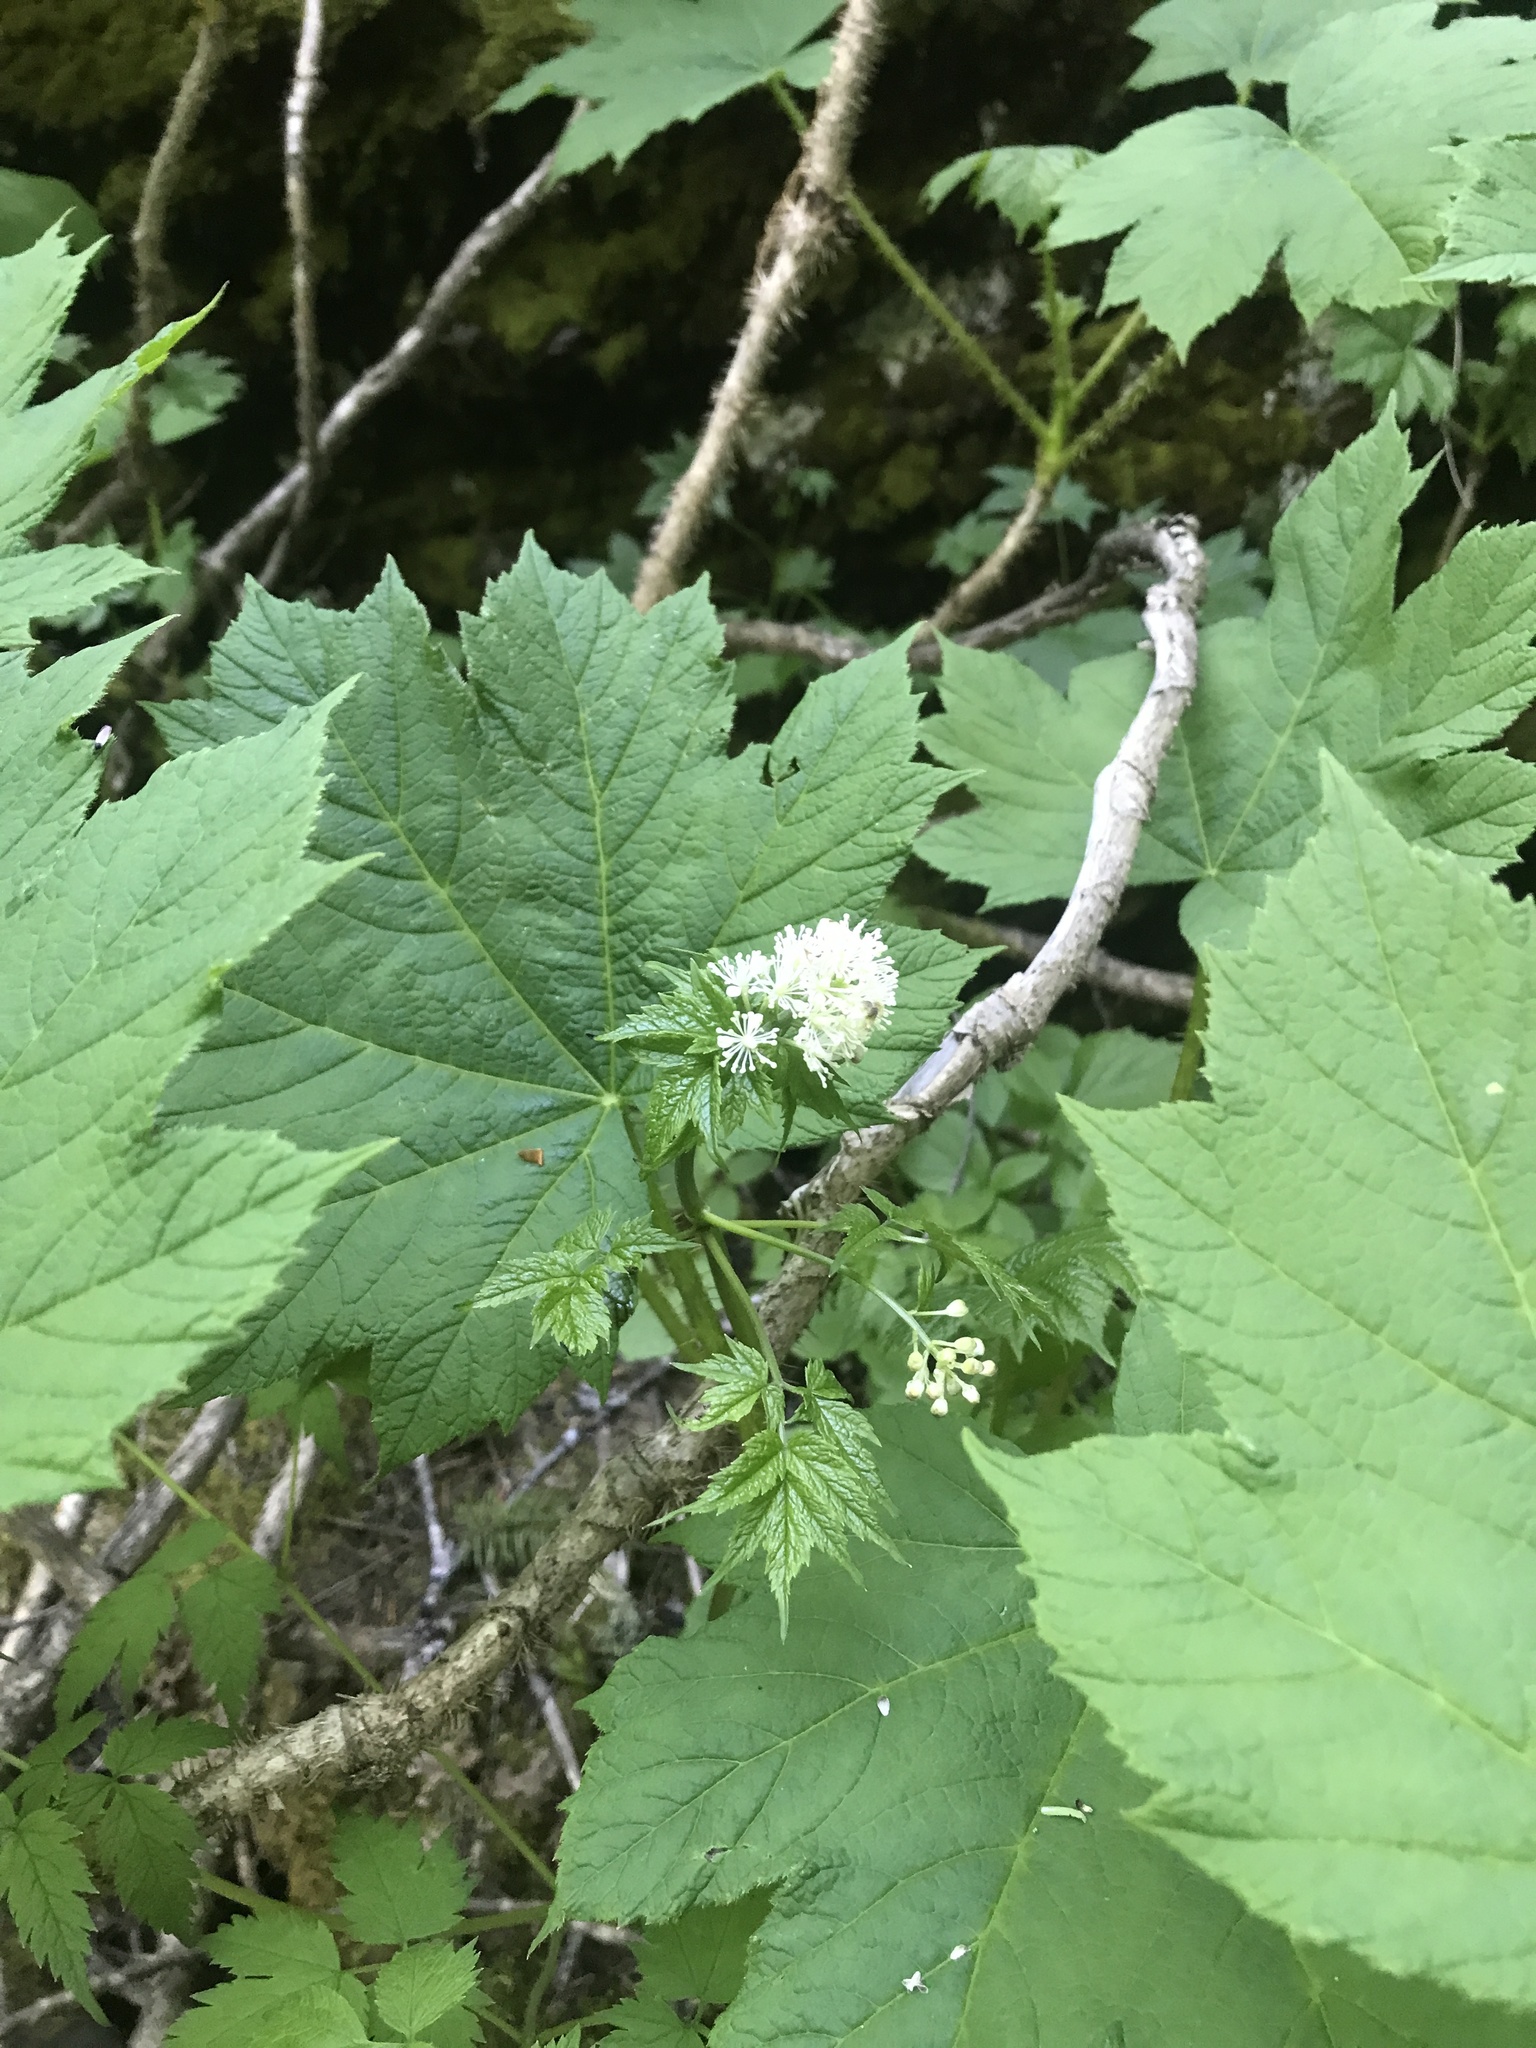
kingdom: Plantae
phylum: Tracheophyta
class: Magnoliopsida
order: Apiales
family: Araliaceae
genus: Oplopanax
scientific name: Oplopanax horridus
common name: Devil's walking-stick
